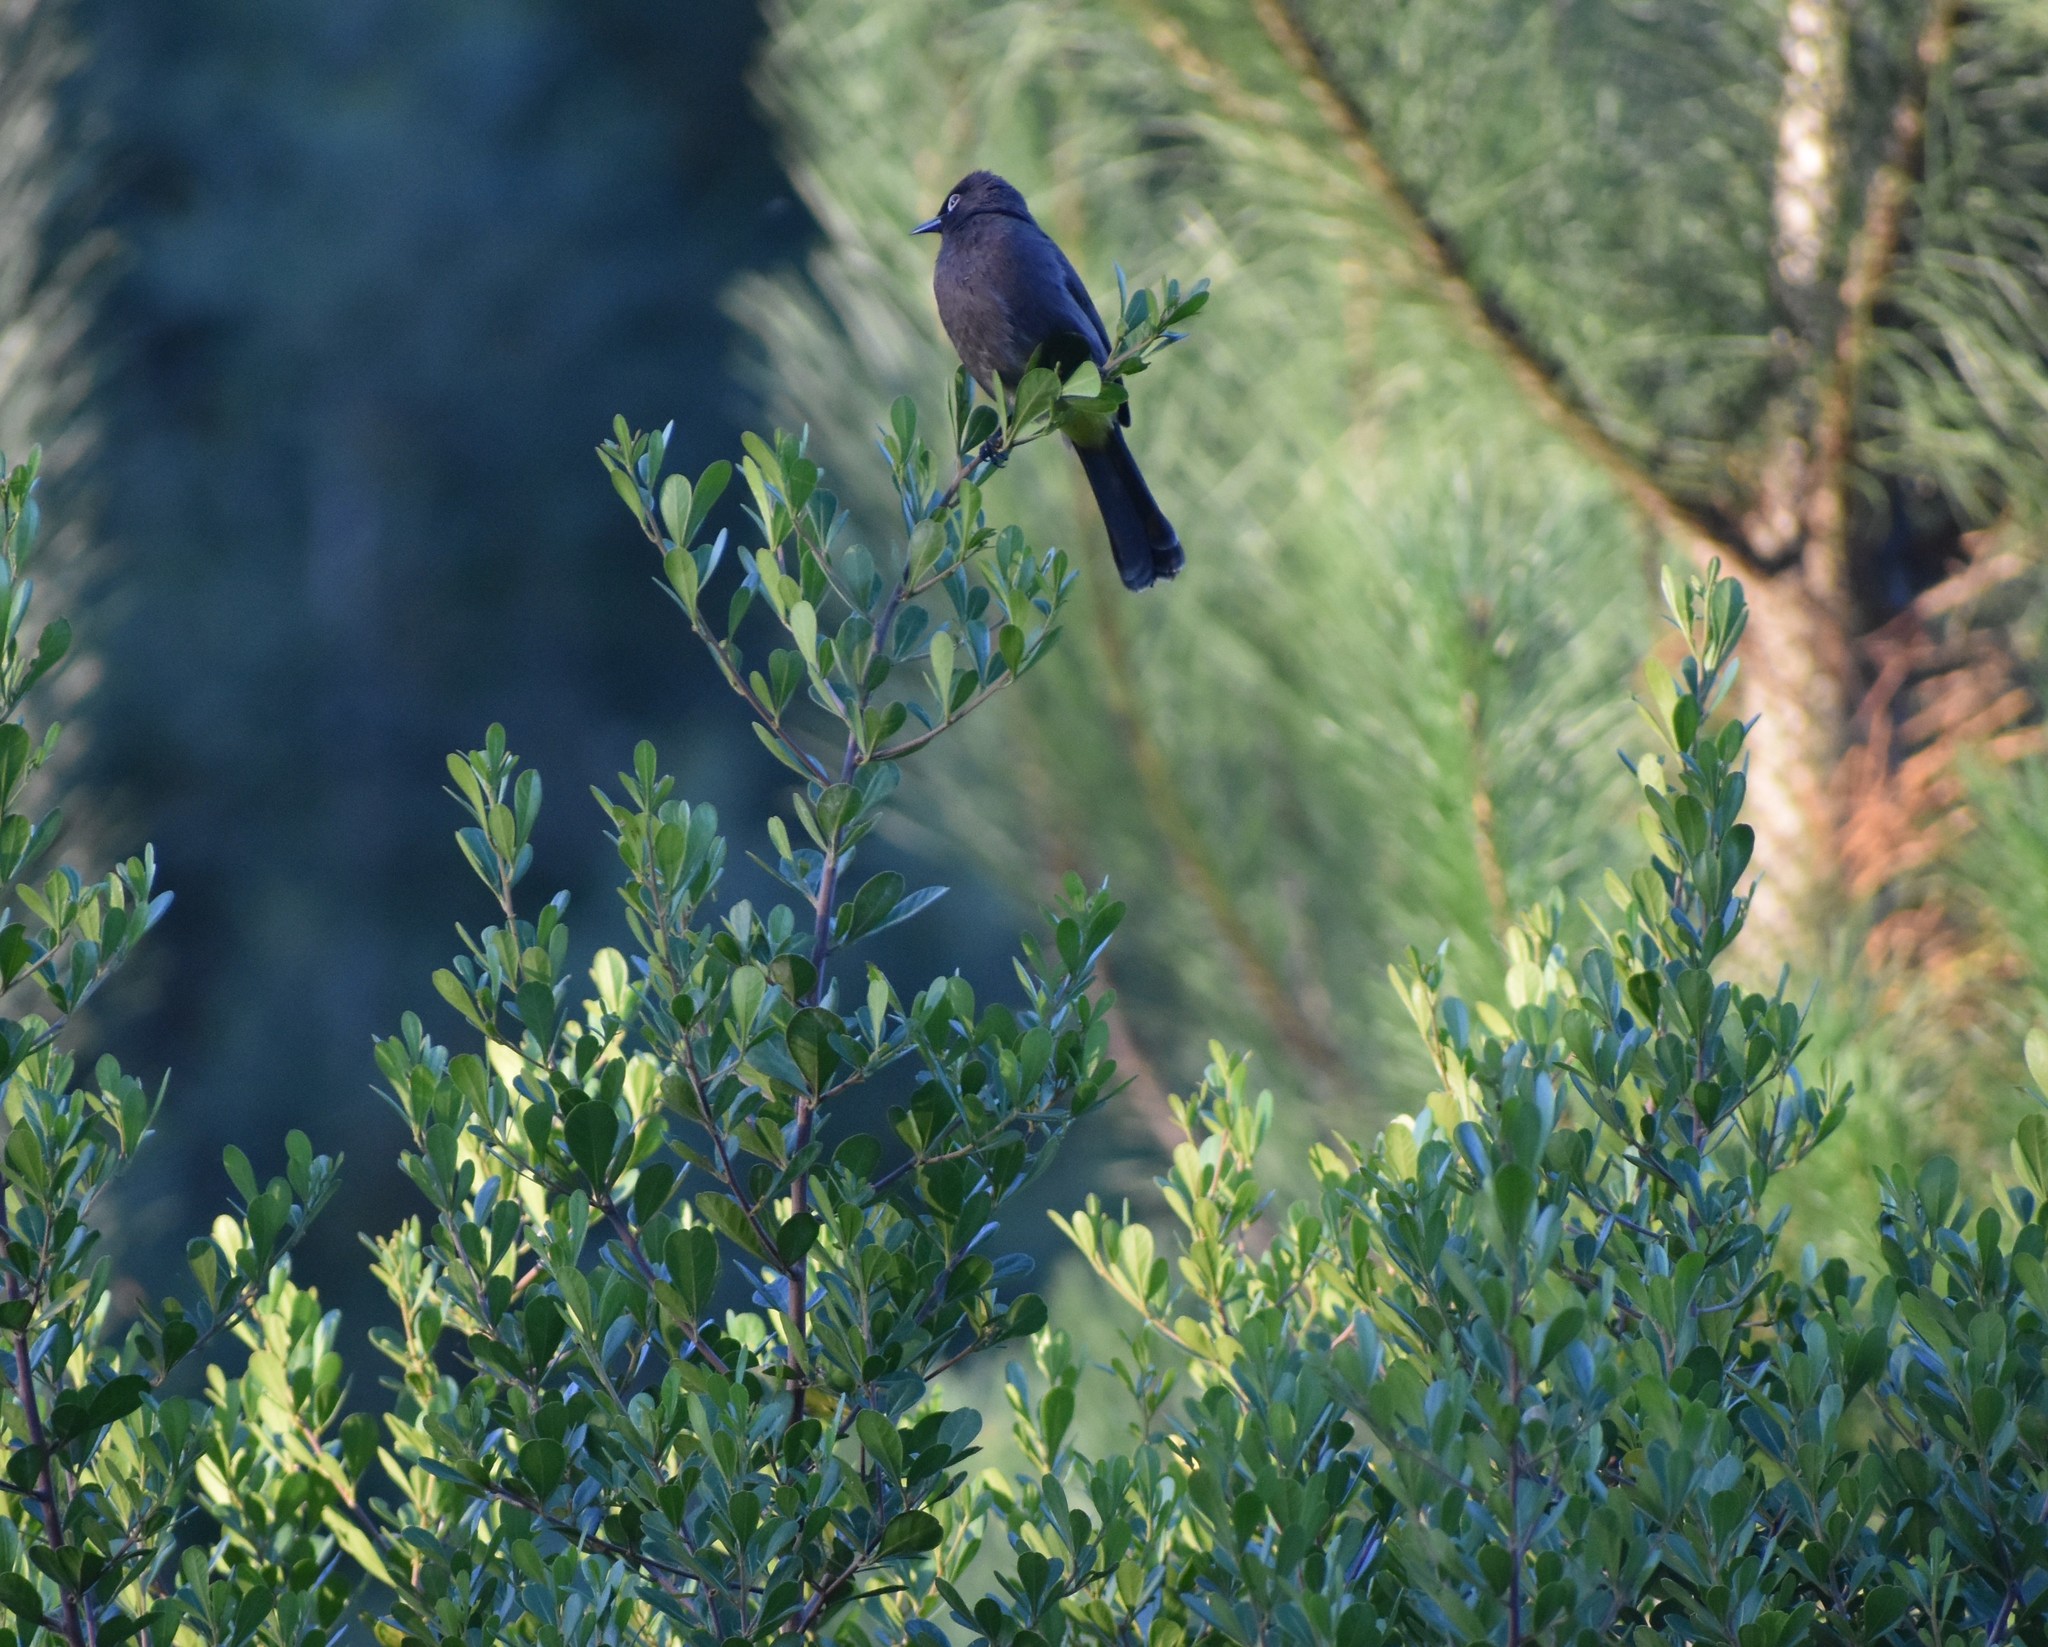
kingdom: Animalia
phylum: Chordata
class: Aves
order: Passeriformes
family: Pycnonotidae
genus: Pycnonotus
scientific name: Pycnonotus capensis
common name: Cape bulbul
